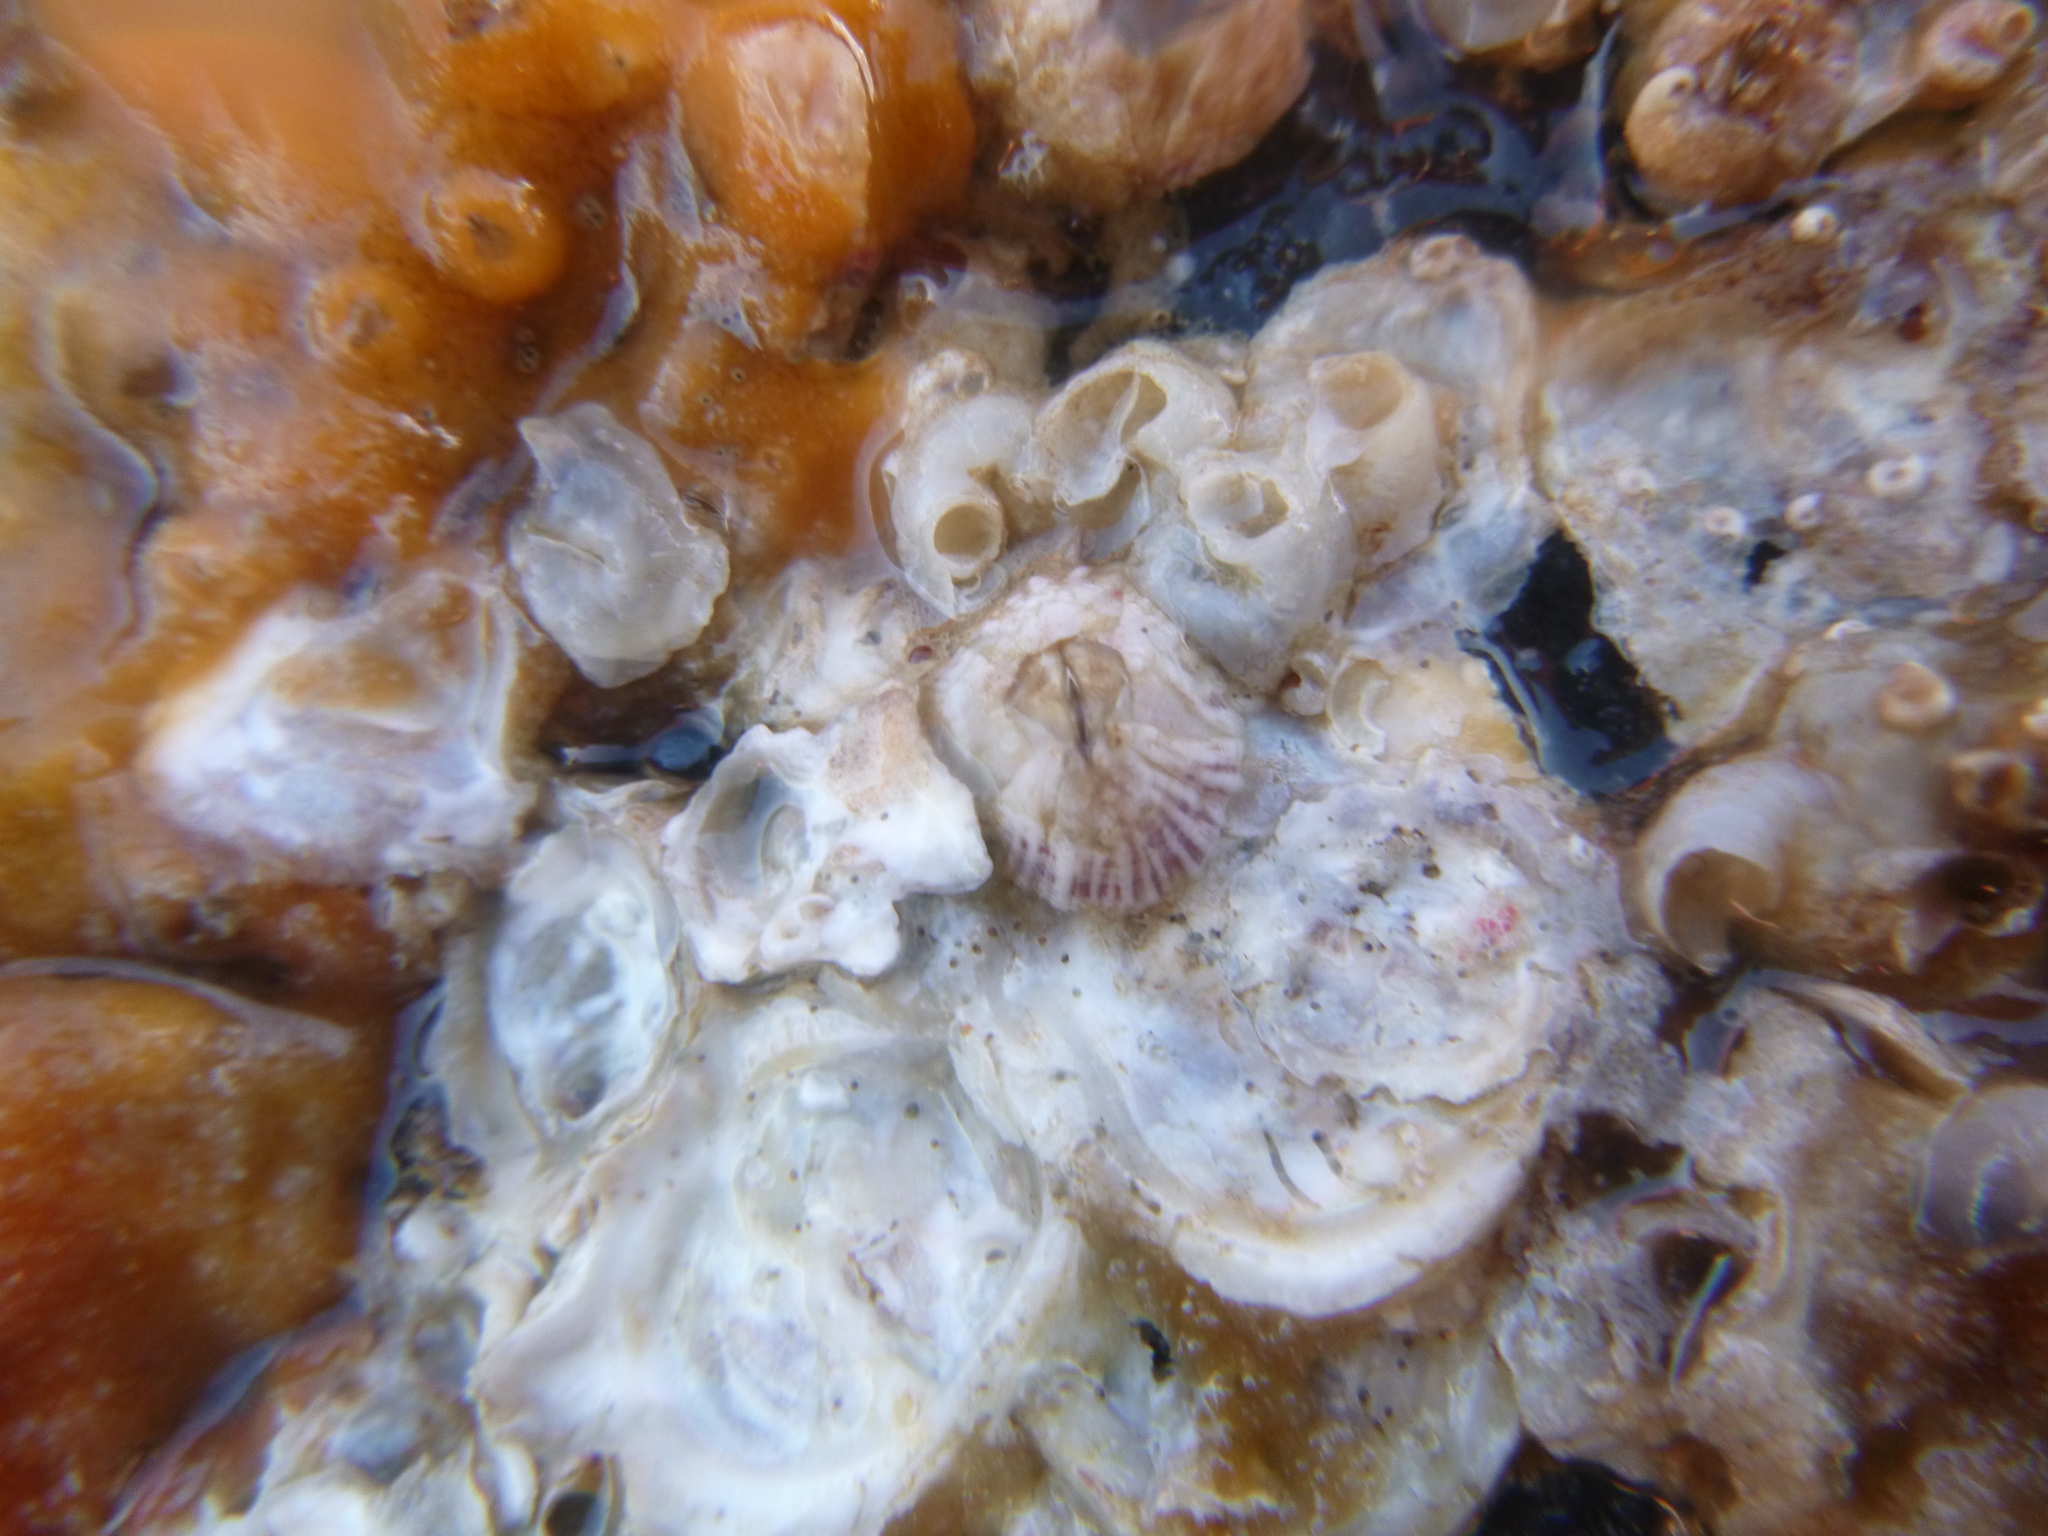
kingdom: Animalia
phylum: Arthropoda
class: Maxillopoda
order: Sessilia
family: Balanidae
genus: Balanus
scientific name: Balanus trigonus
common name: Triangle barnacle
